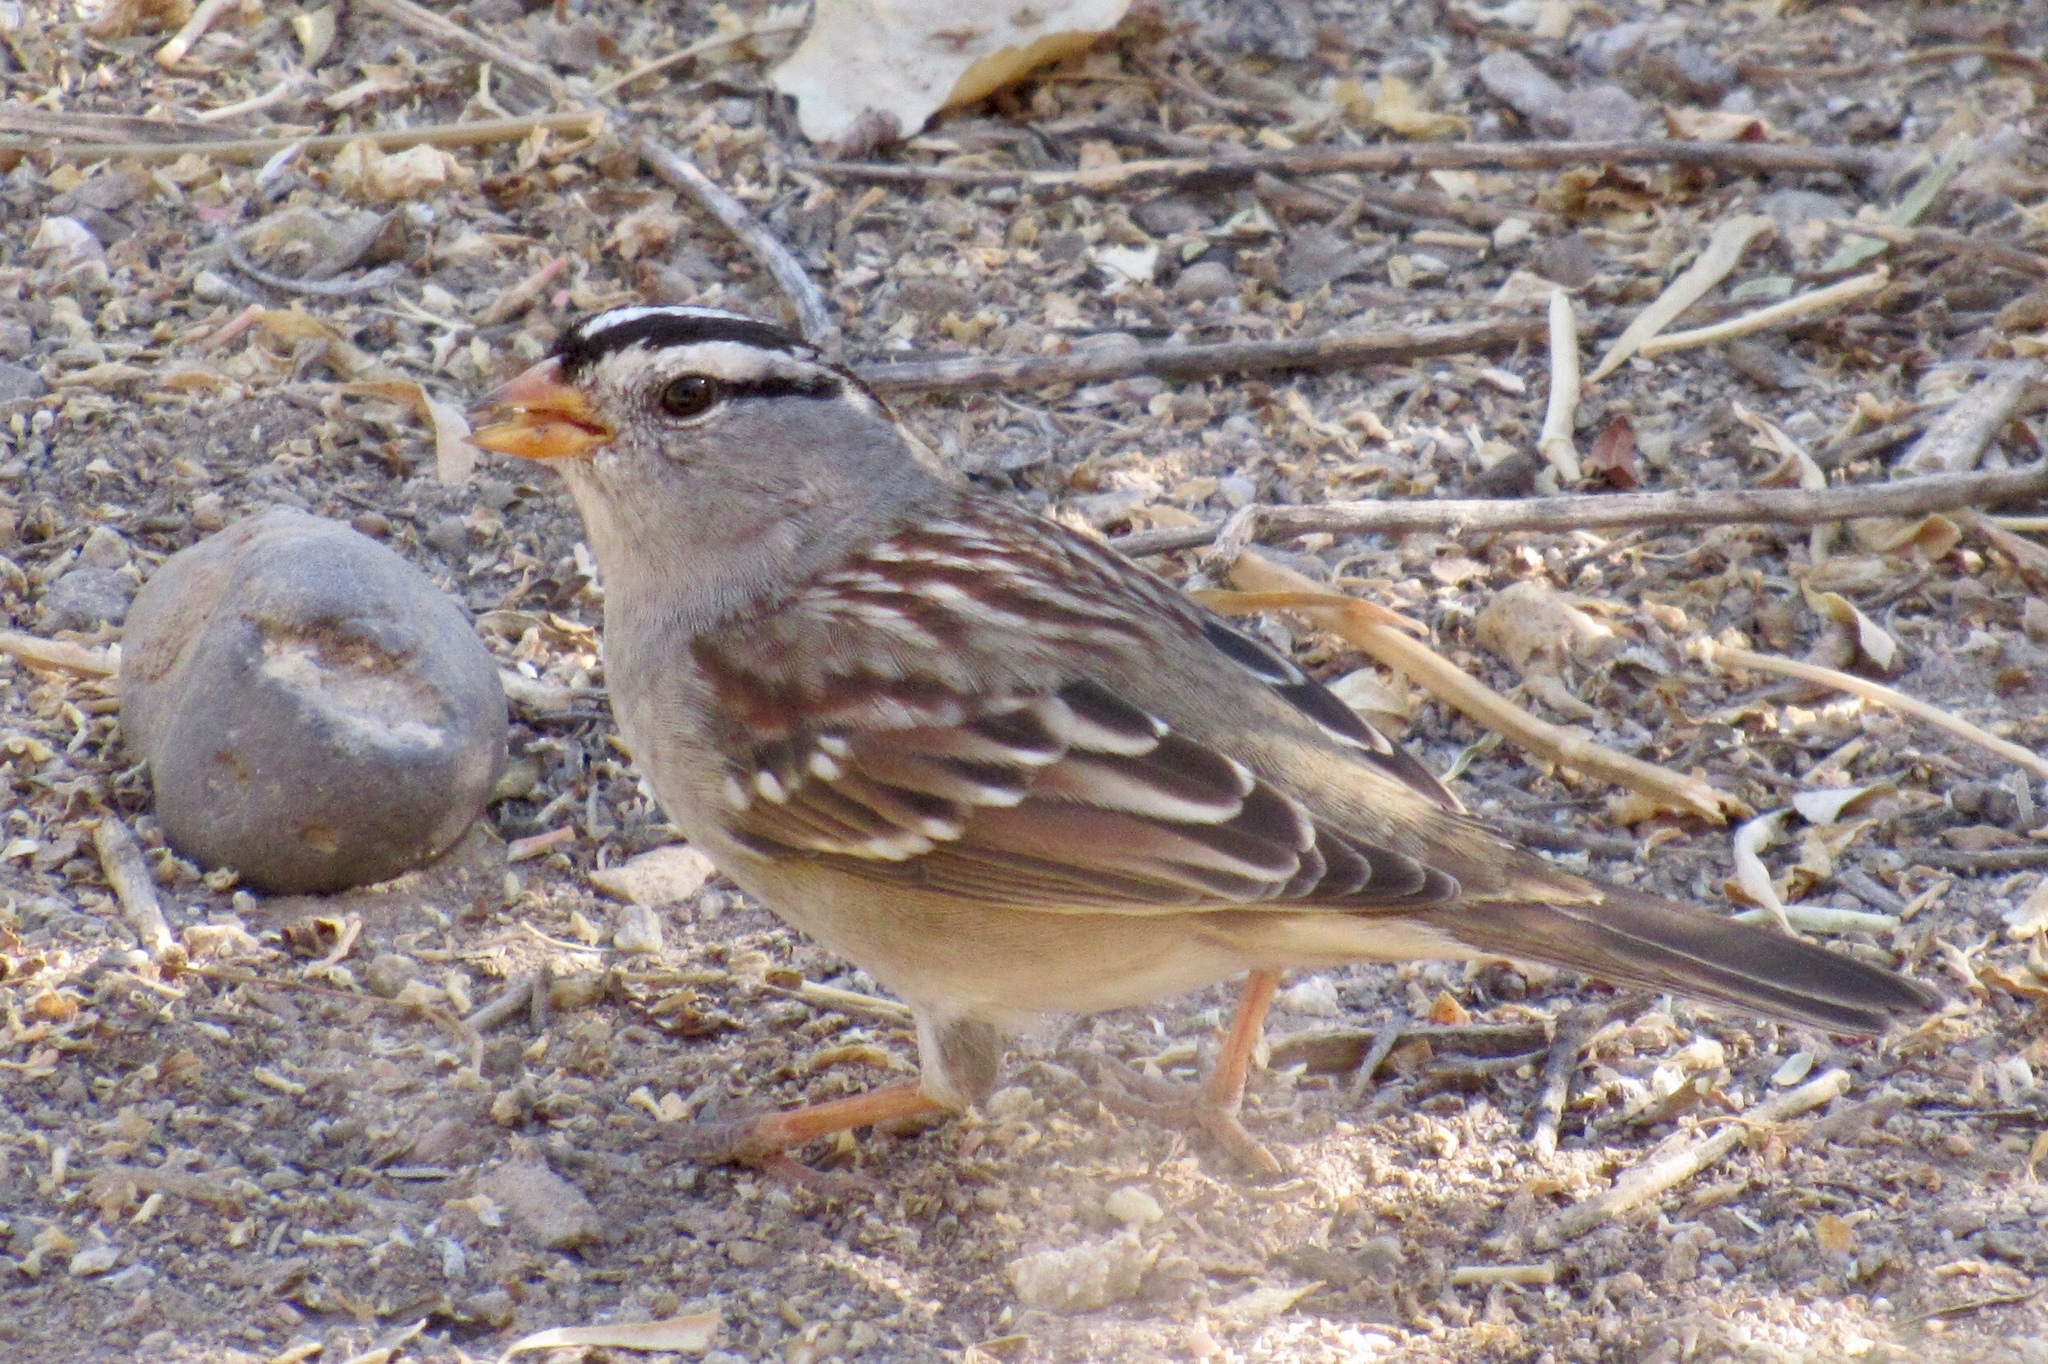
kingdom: Animalia
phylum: Chordata
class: Aves
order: Passeriformes
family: Passerellidae
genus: Zonotrichia
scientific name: Zonotrichia leucophrys
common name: White-crowned sparrow
